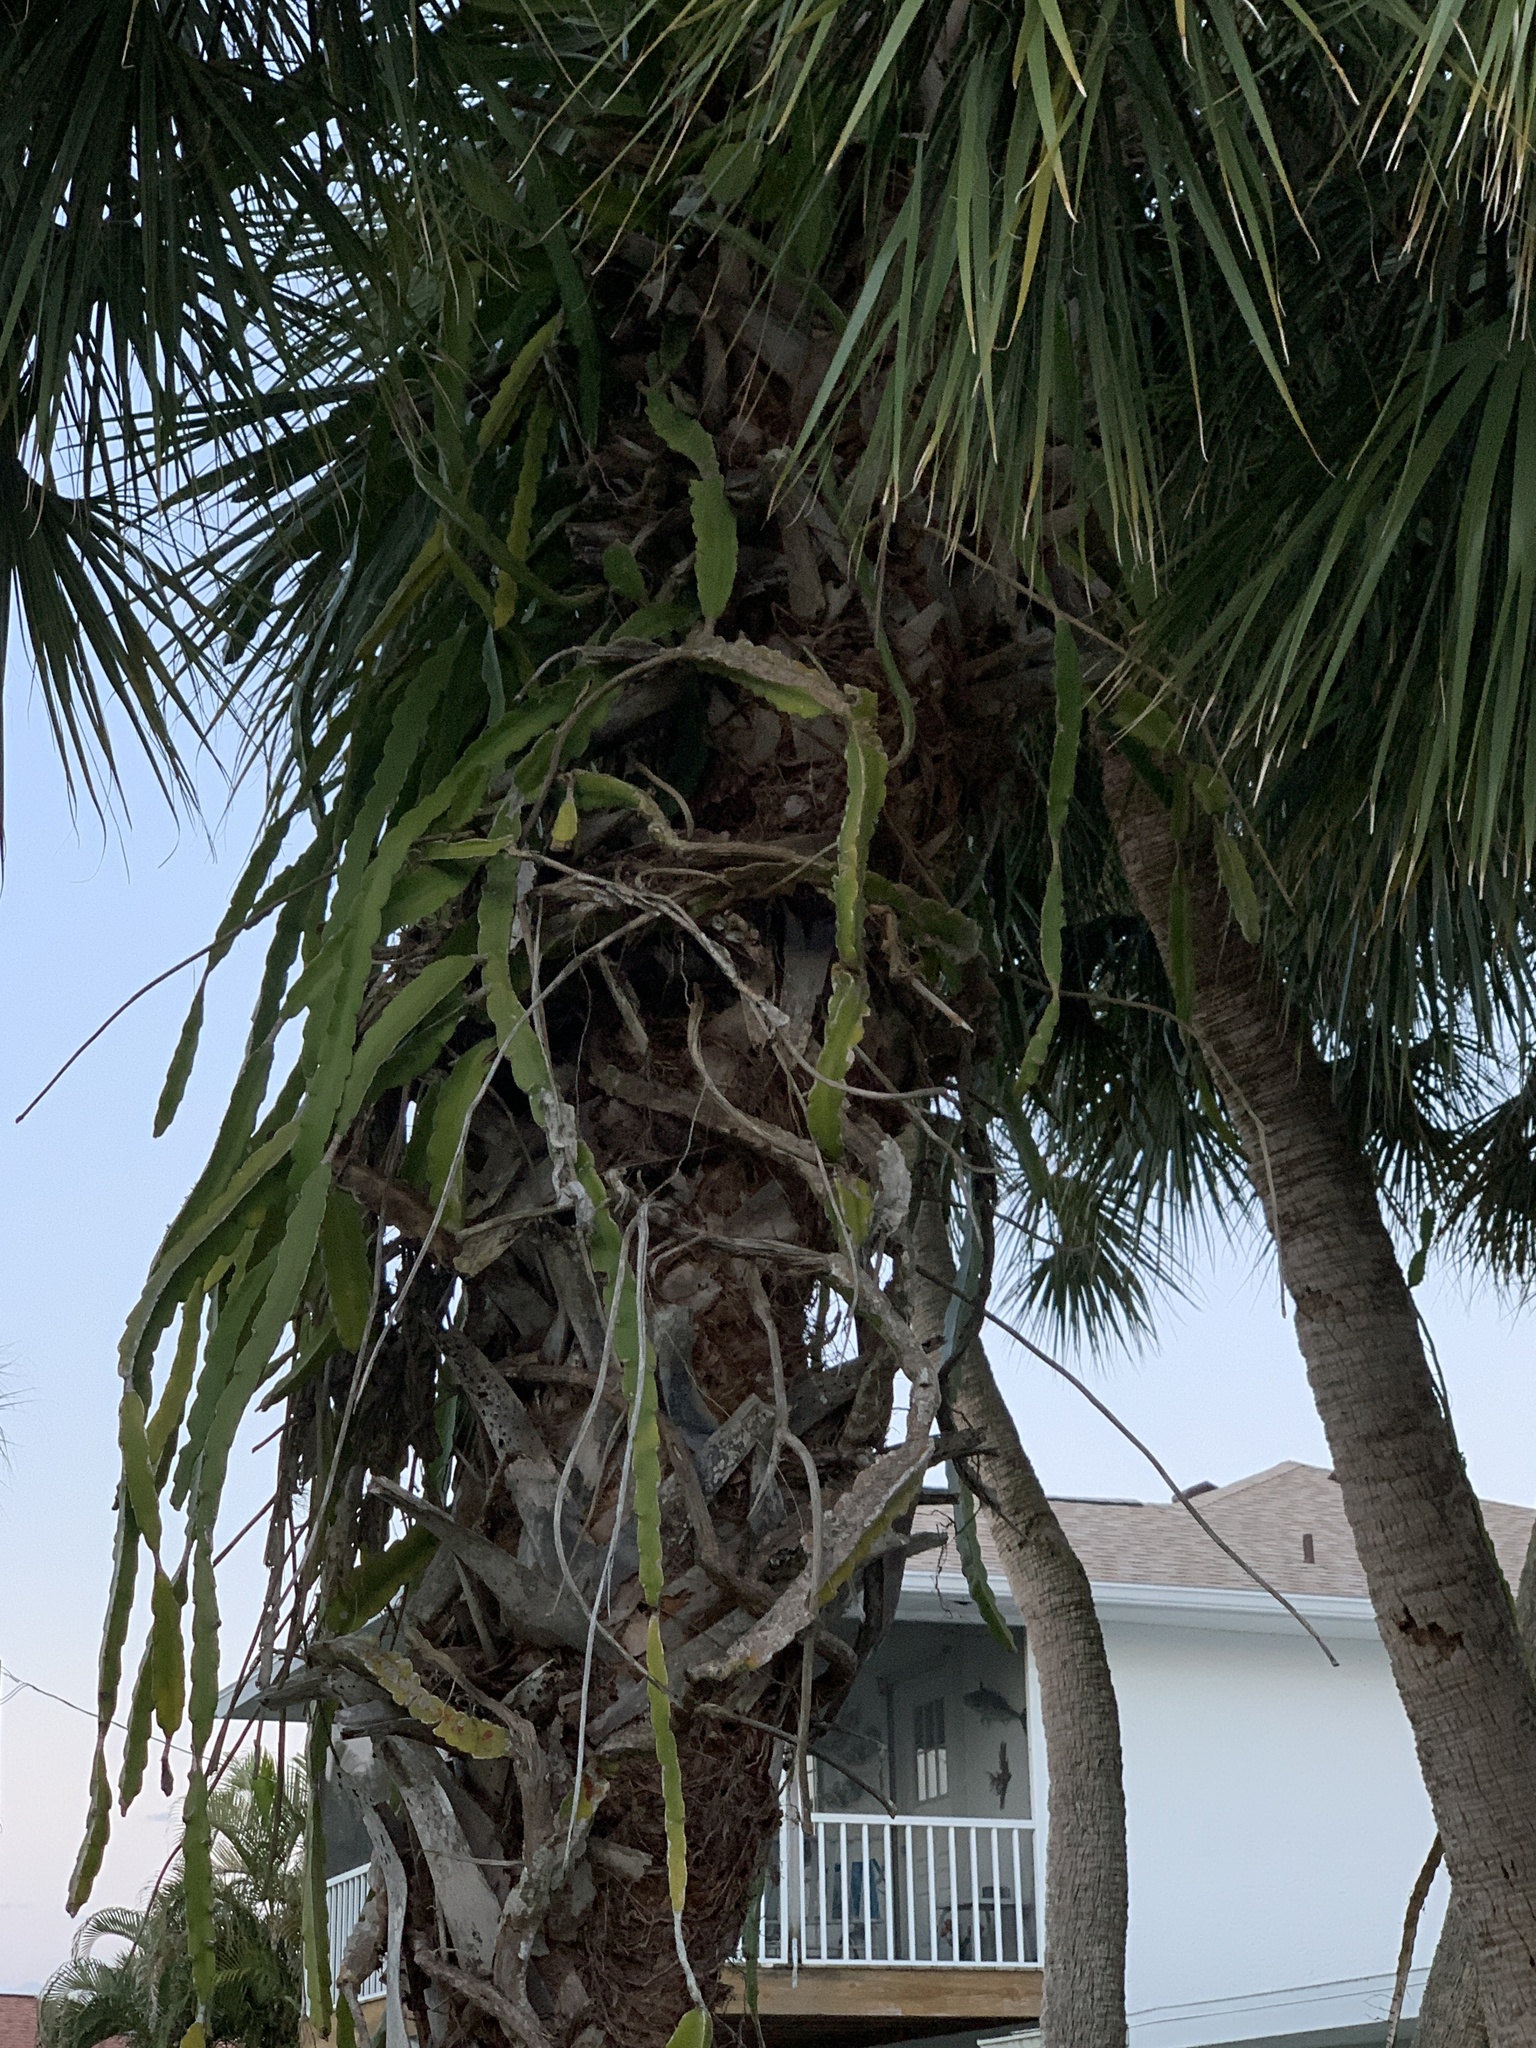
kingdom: Plantae
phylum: Tracheophyta
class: Magnoliopsida
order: Caryophyllales
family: Cactaceae
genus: Selenicereus
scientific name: Selenicereus undatus
